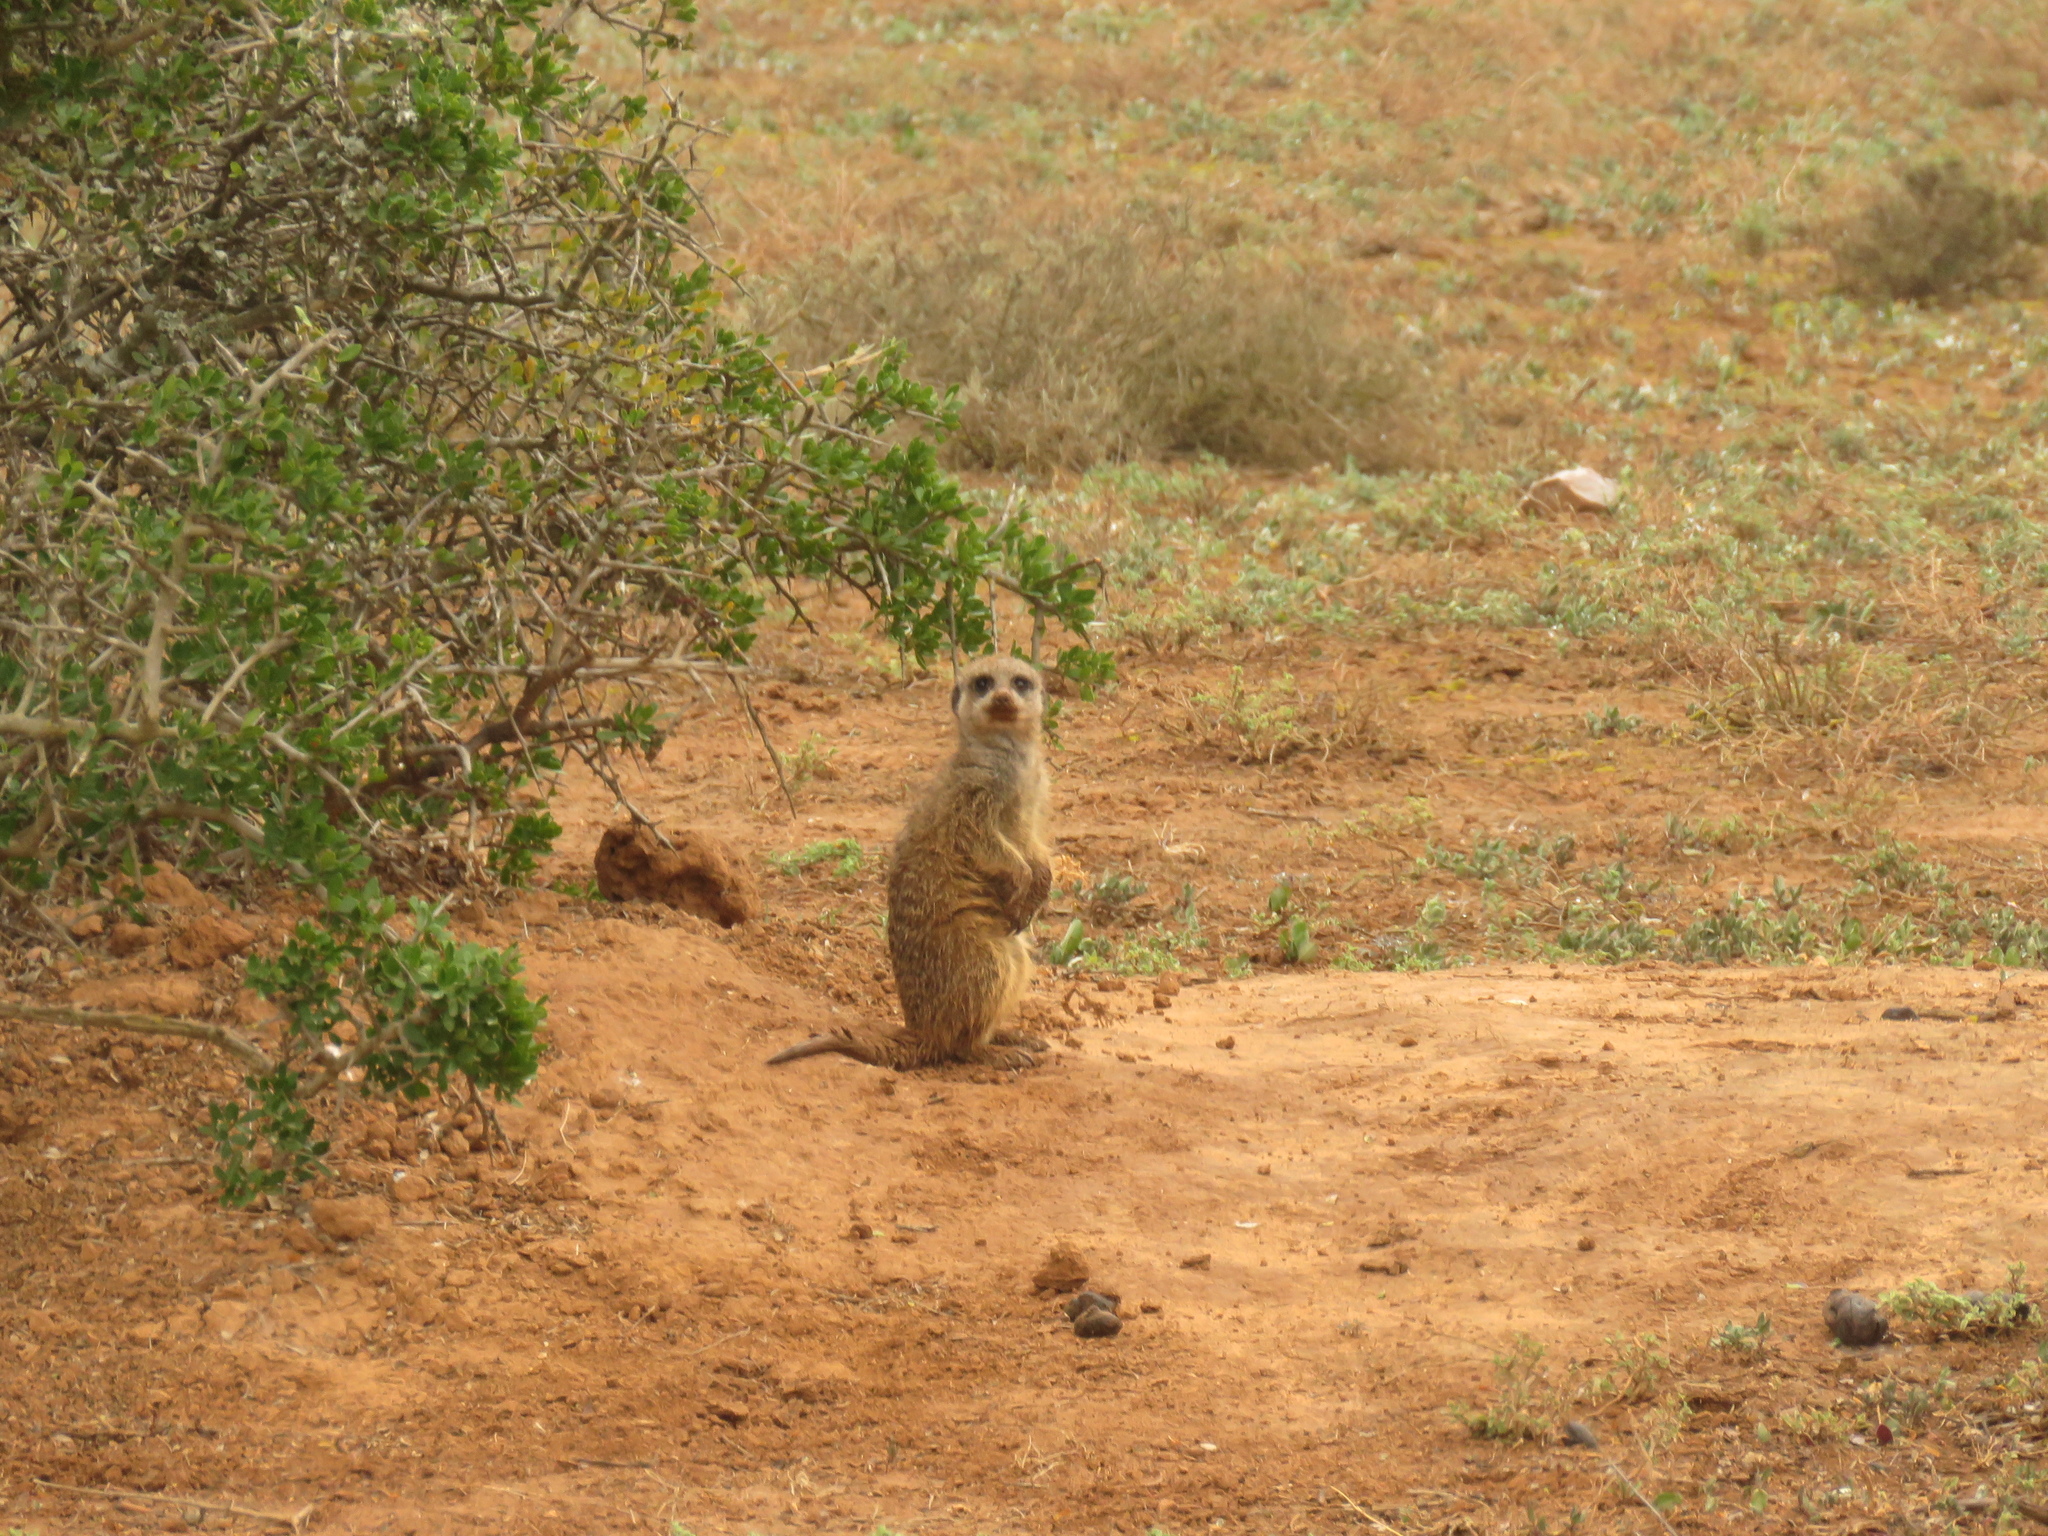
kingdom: Animalia
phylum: Chordata
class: Mammalia
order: Carnivora
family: Herpestidae
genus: Suricata
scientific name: Suricata suricatta
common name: Meerkat
